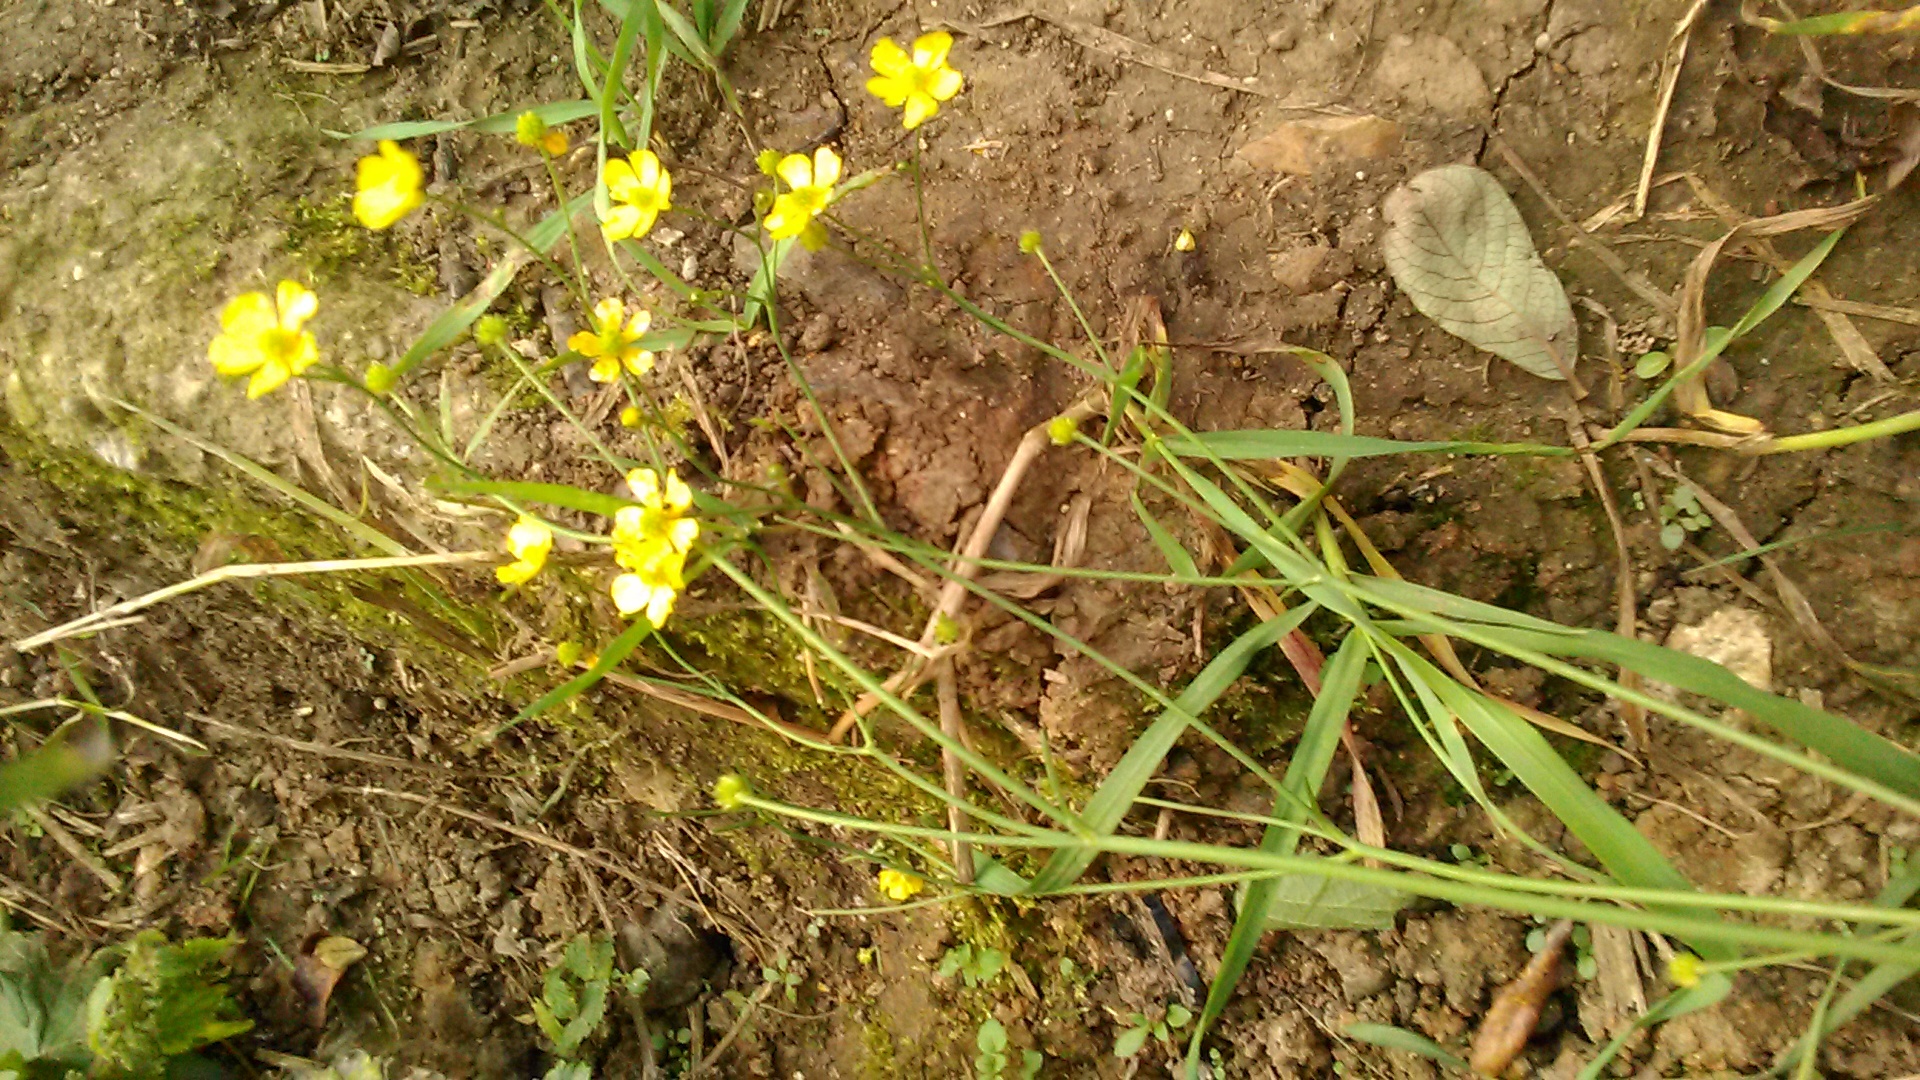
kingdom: Plantae
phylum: Tracheophyta
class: Magnoliopsida
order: Ranunculales
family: Ranunculaceae
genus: Ranunculus
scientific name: Ranunculus acris
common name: Meadow buttercup
